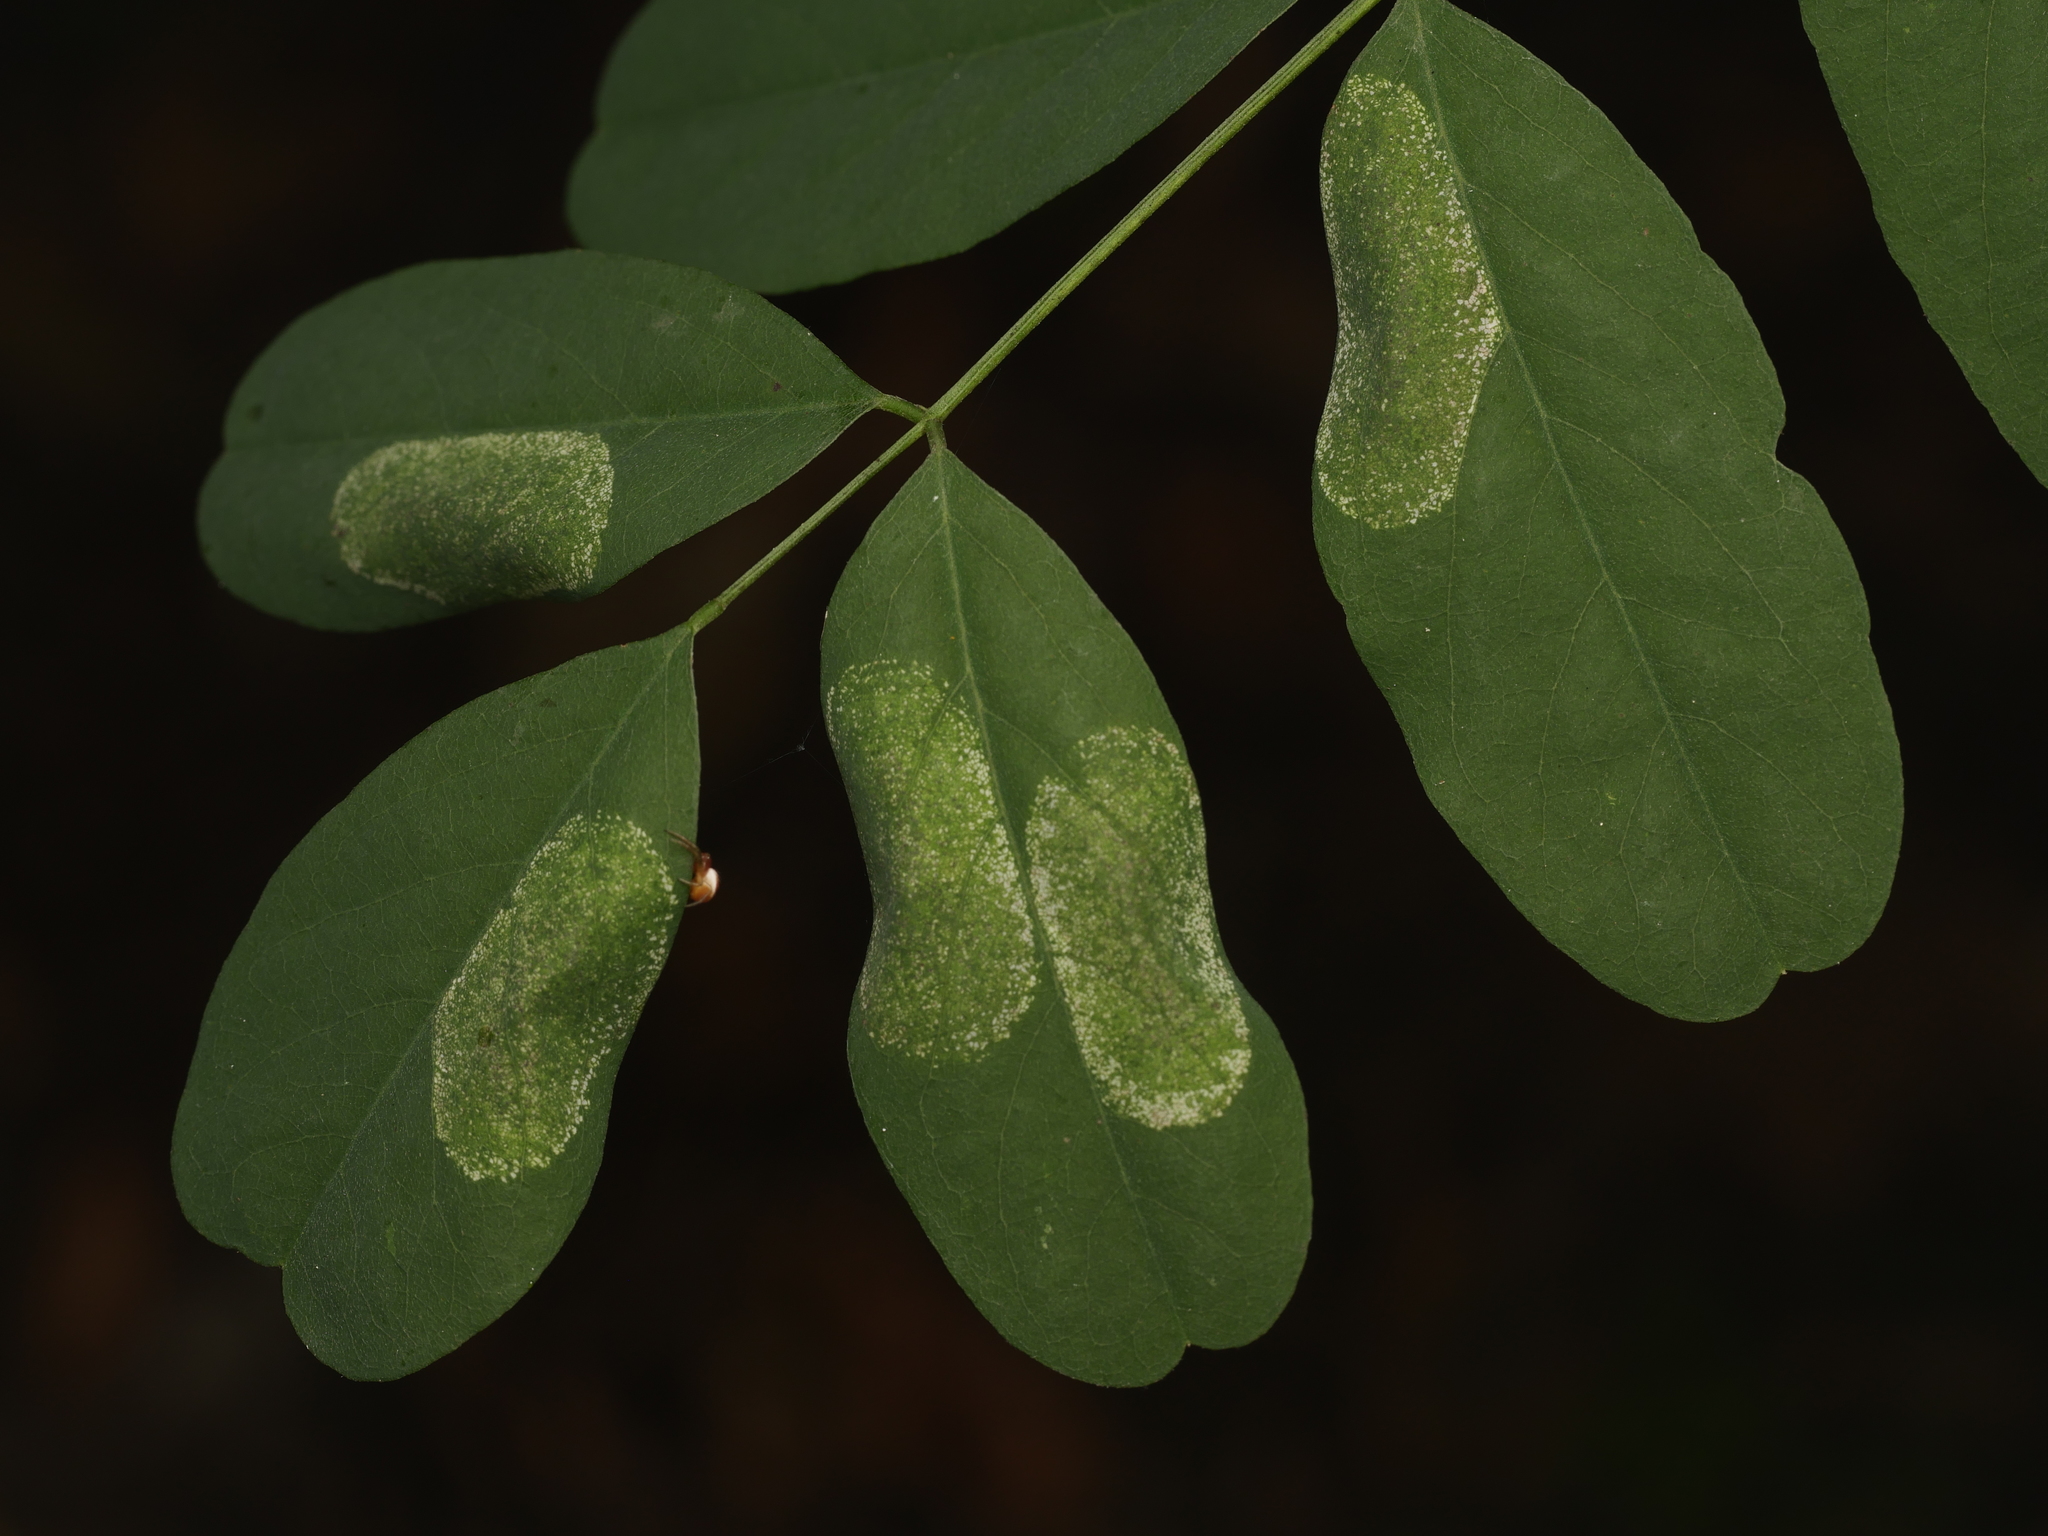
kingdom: Animalia
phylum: Arthropoda
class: Insecta
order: Lepidoptera
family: Gracillariidae
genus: Macrosaccus
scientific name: Macrosaccus robiniella
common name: Leaf blotch miner moth
